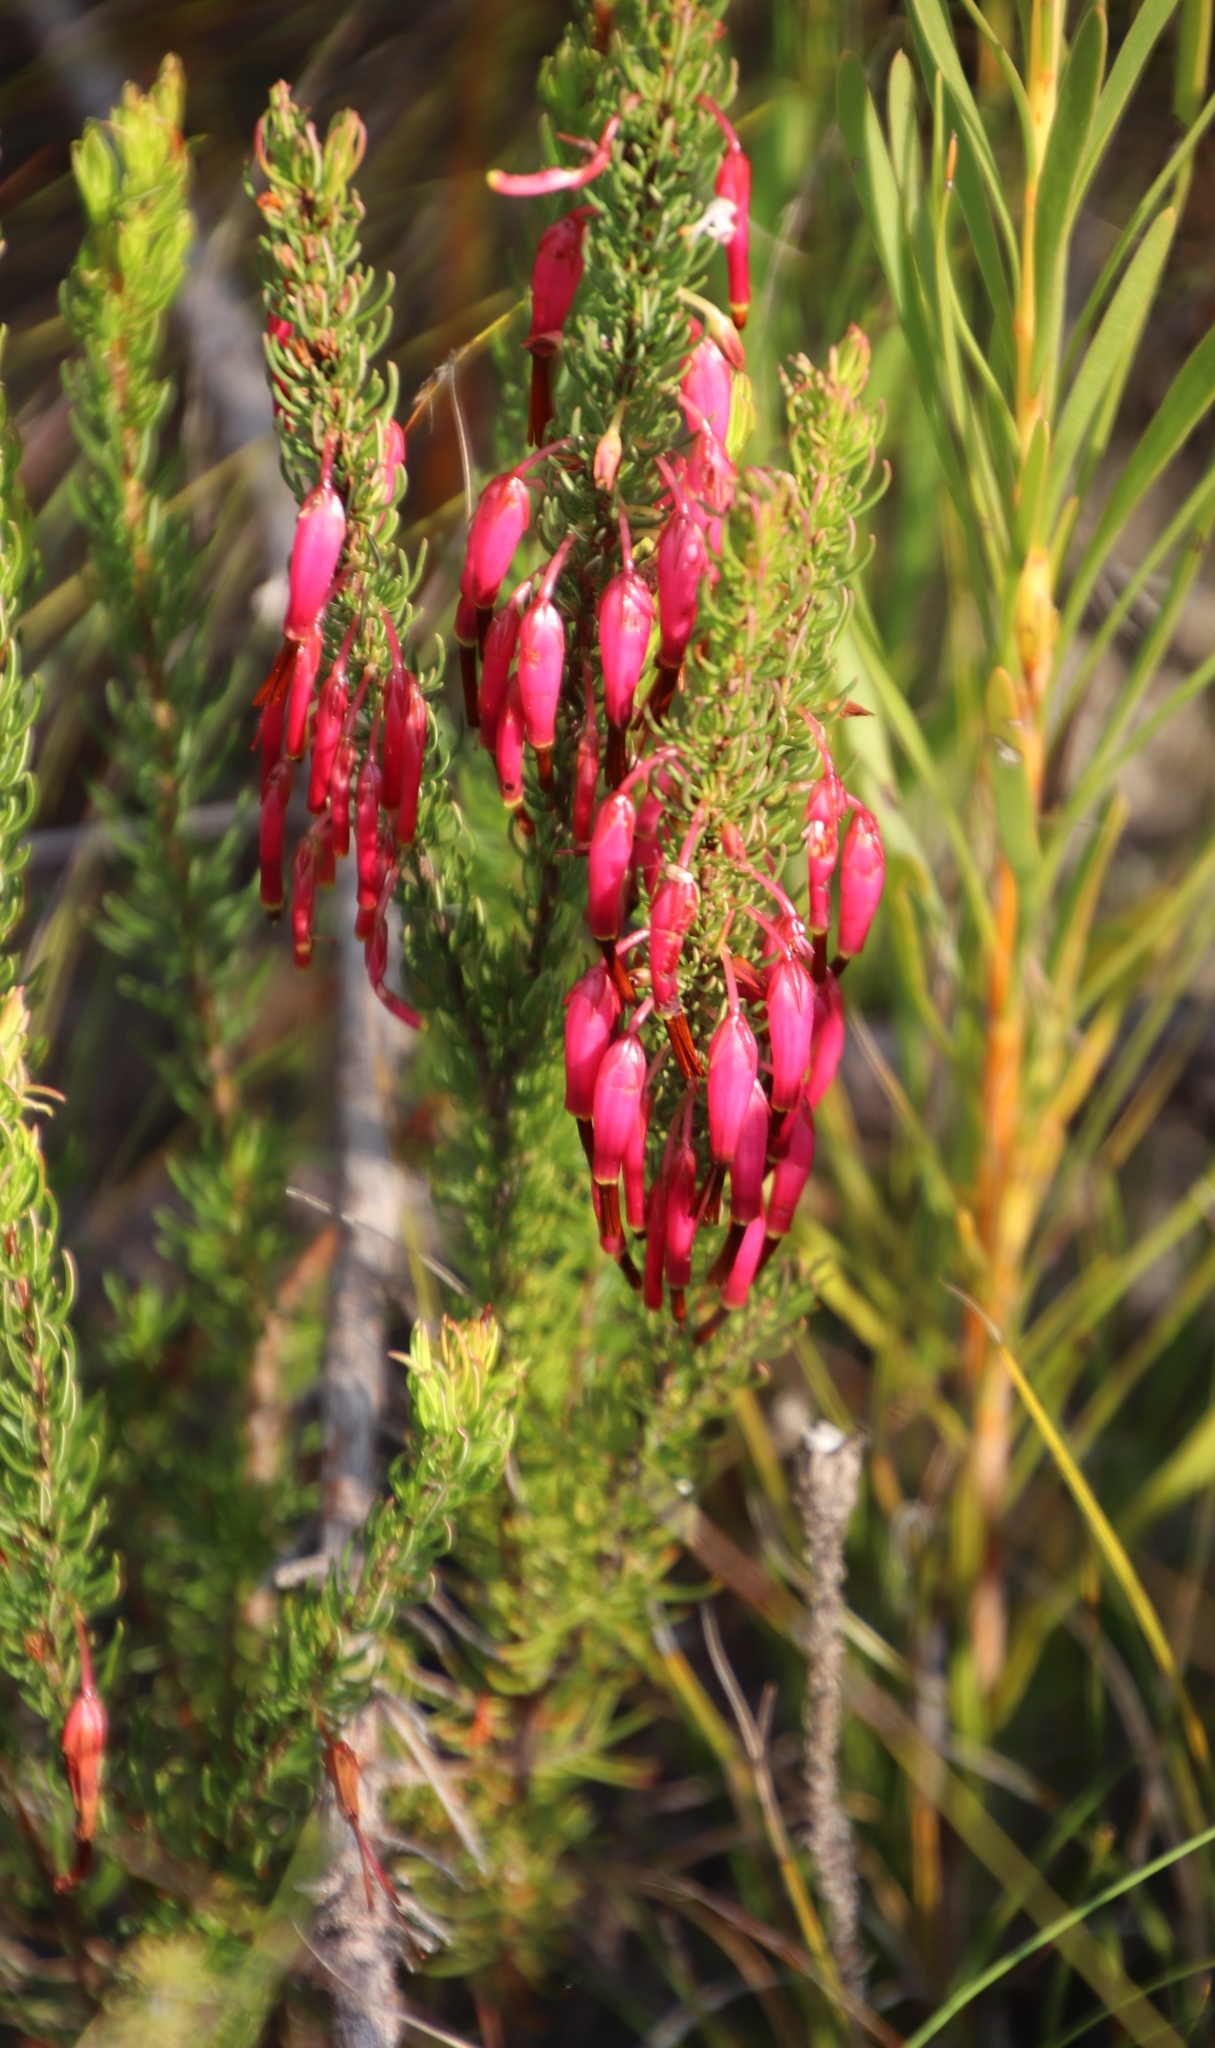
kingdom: Plantae
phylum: Tracheophyta
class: Magnoliopsida
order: Ericales
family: Ericaceae
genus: Erica
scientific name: Erica plukenetii
